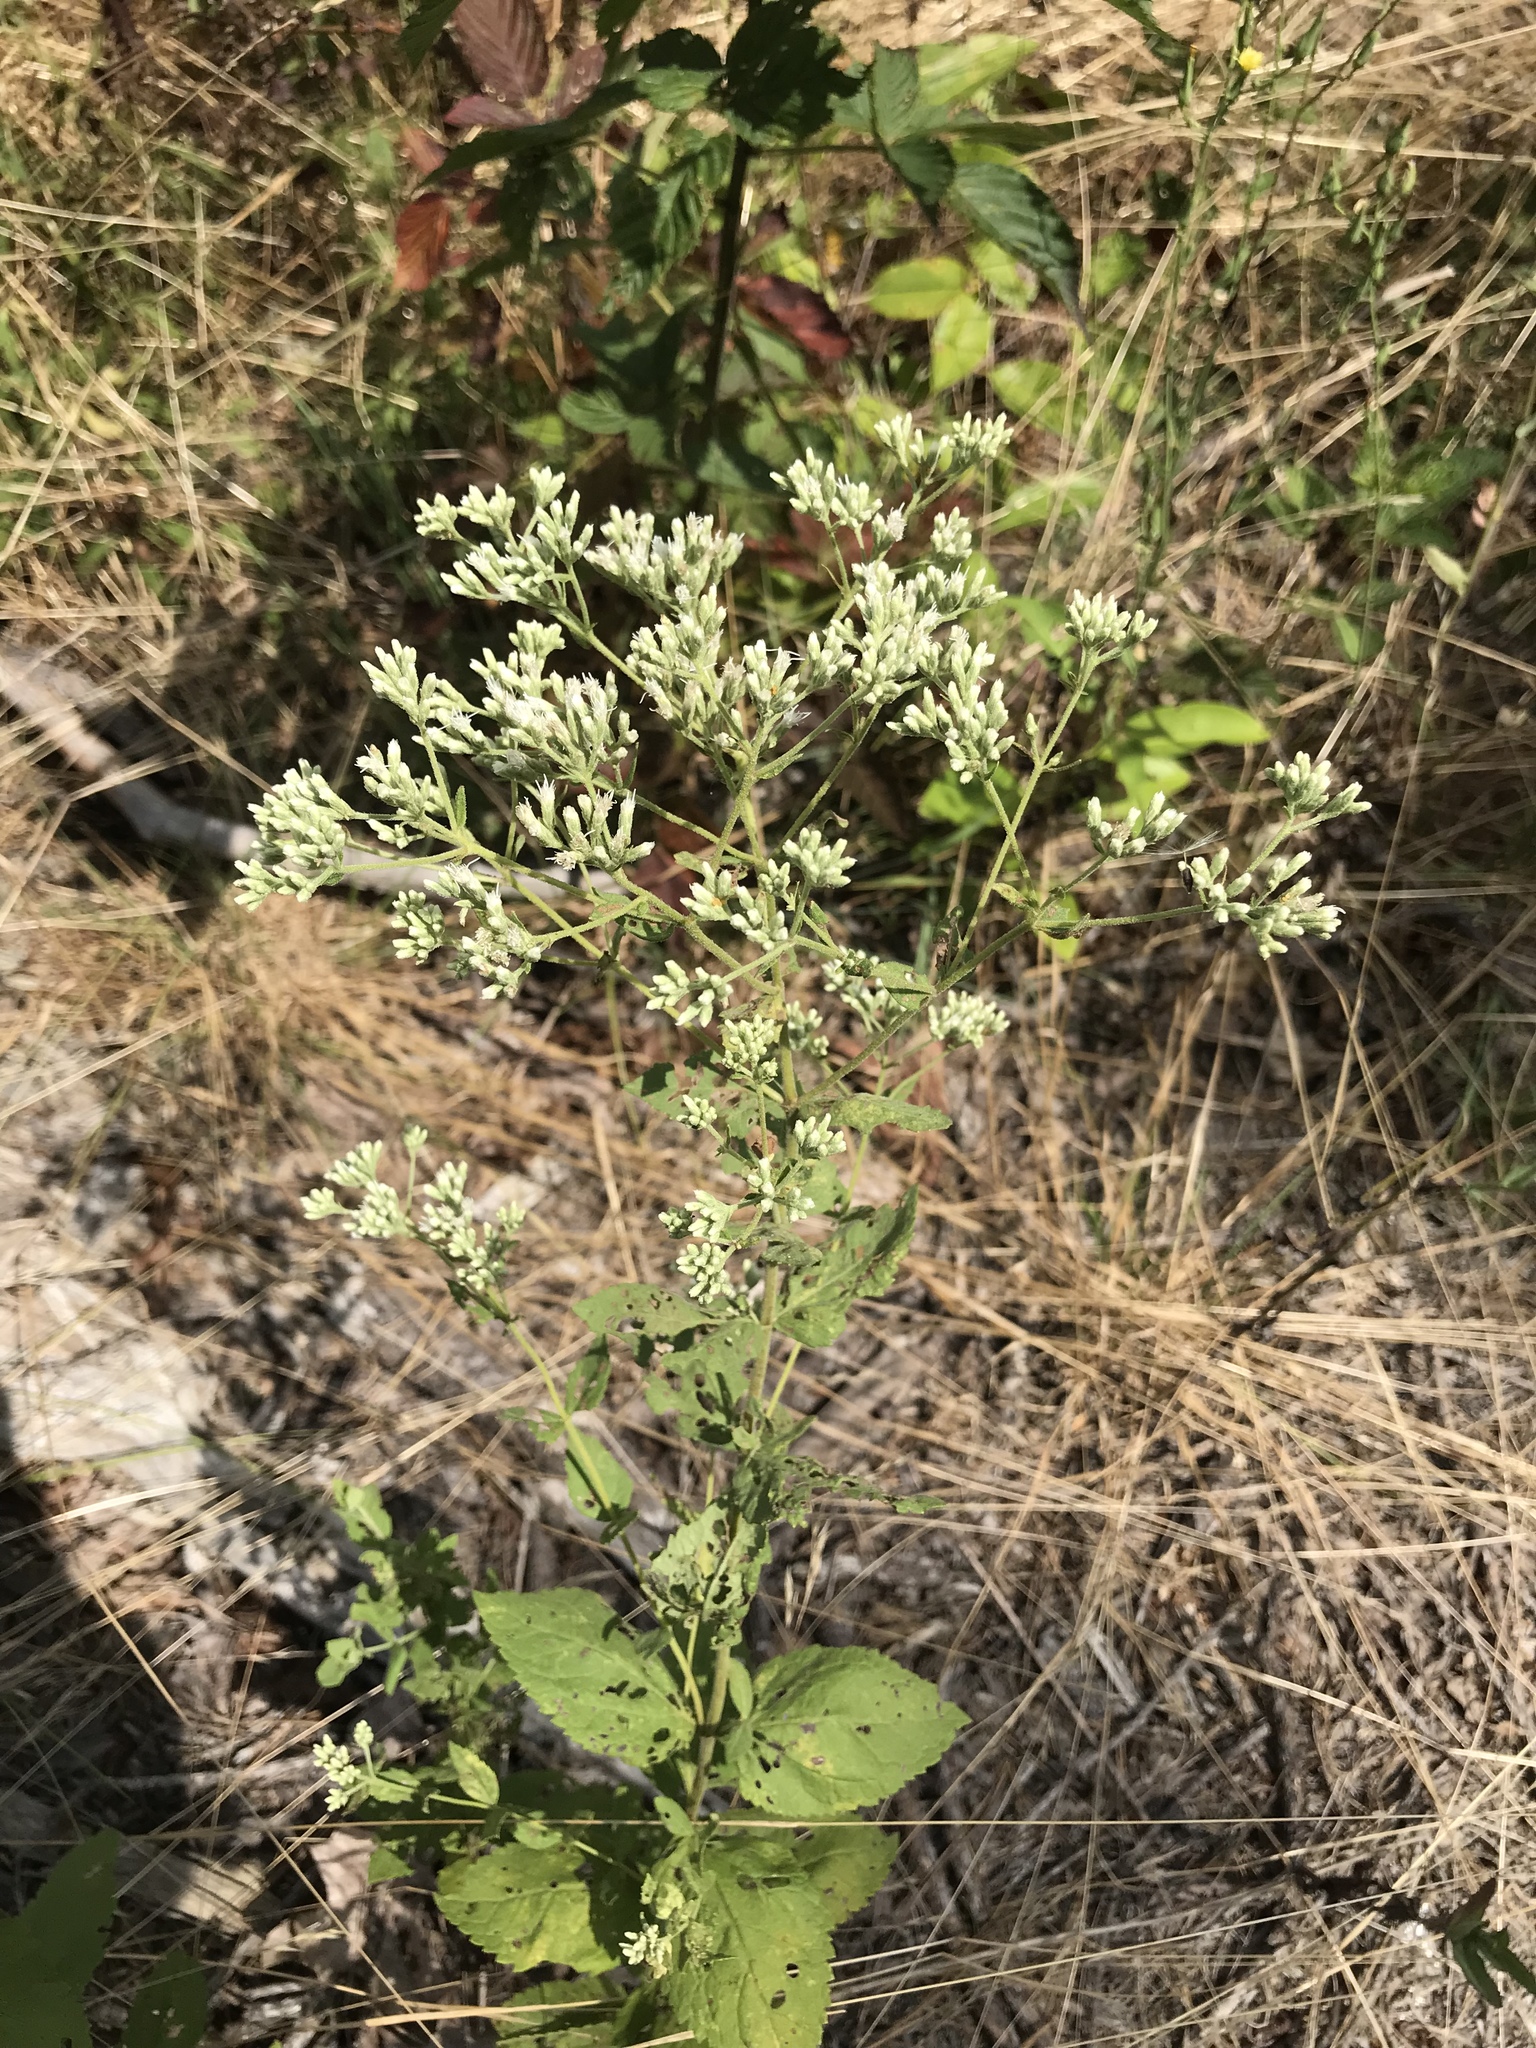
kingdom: Plantae
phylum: Tracheophyta
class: Magnoliopsida
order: Asterales
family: Asteraceae
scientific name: Asteraceae
